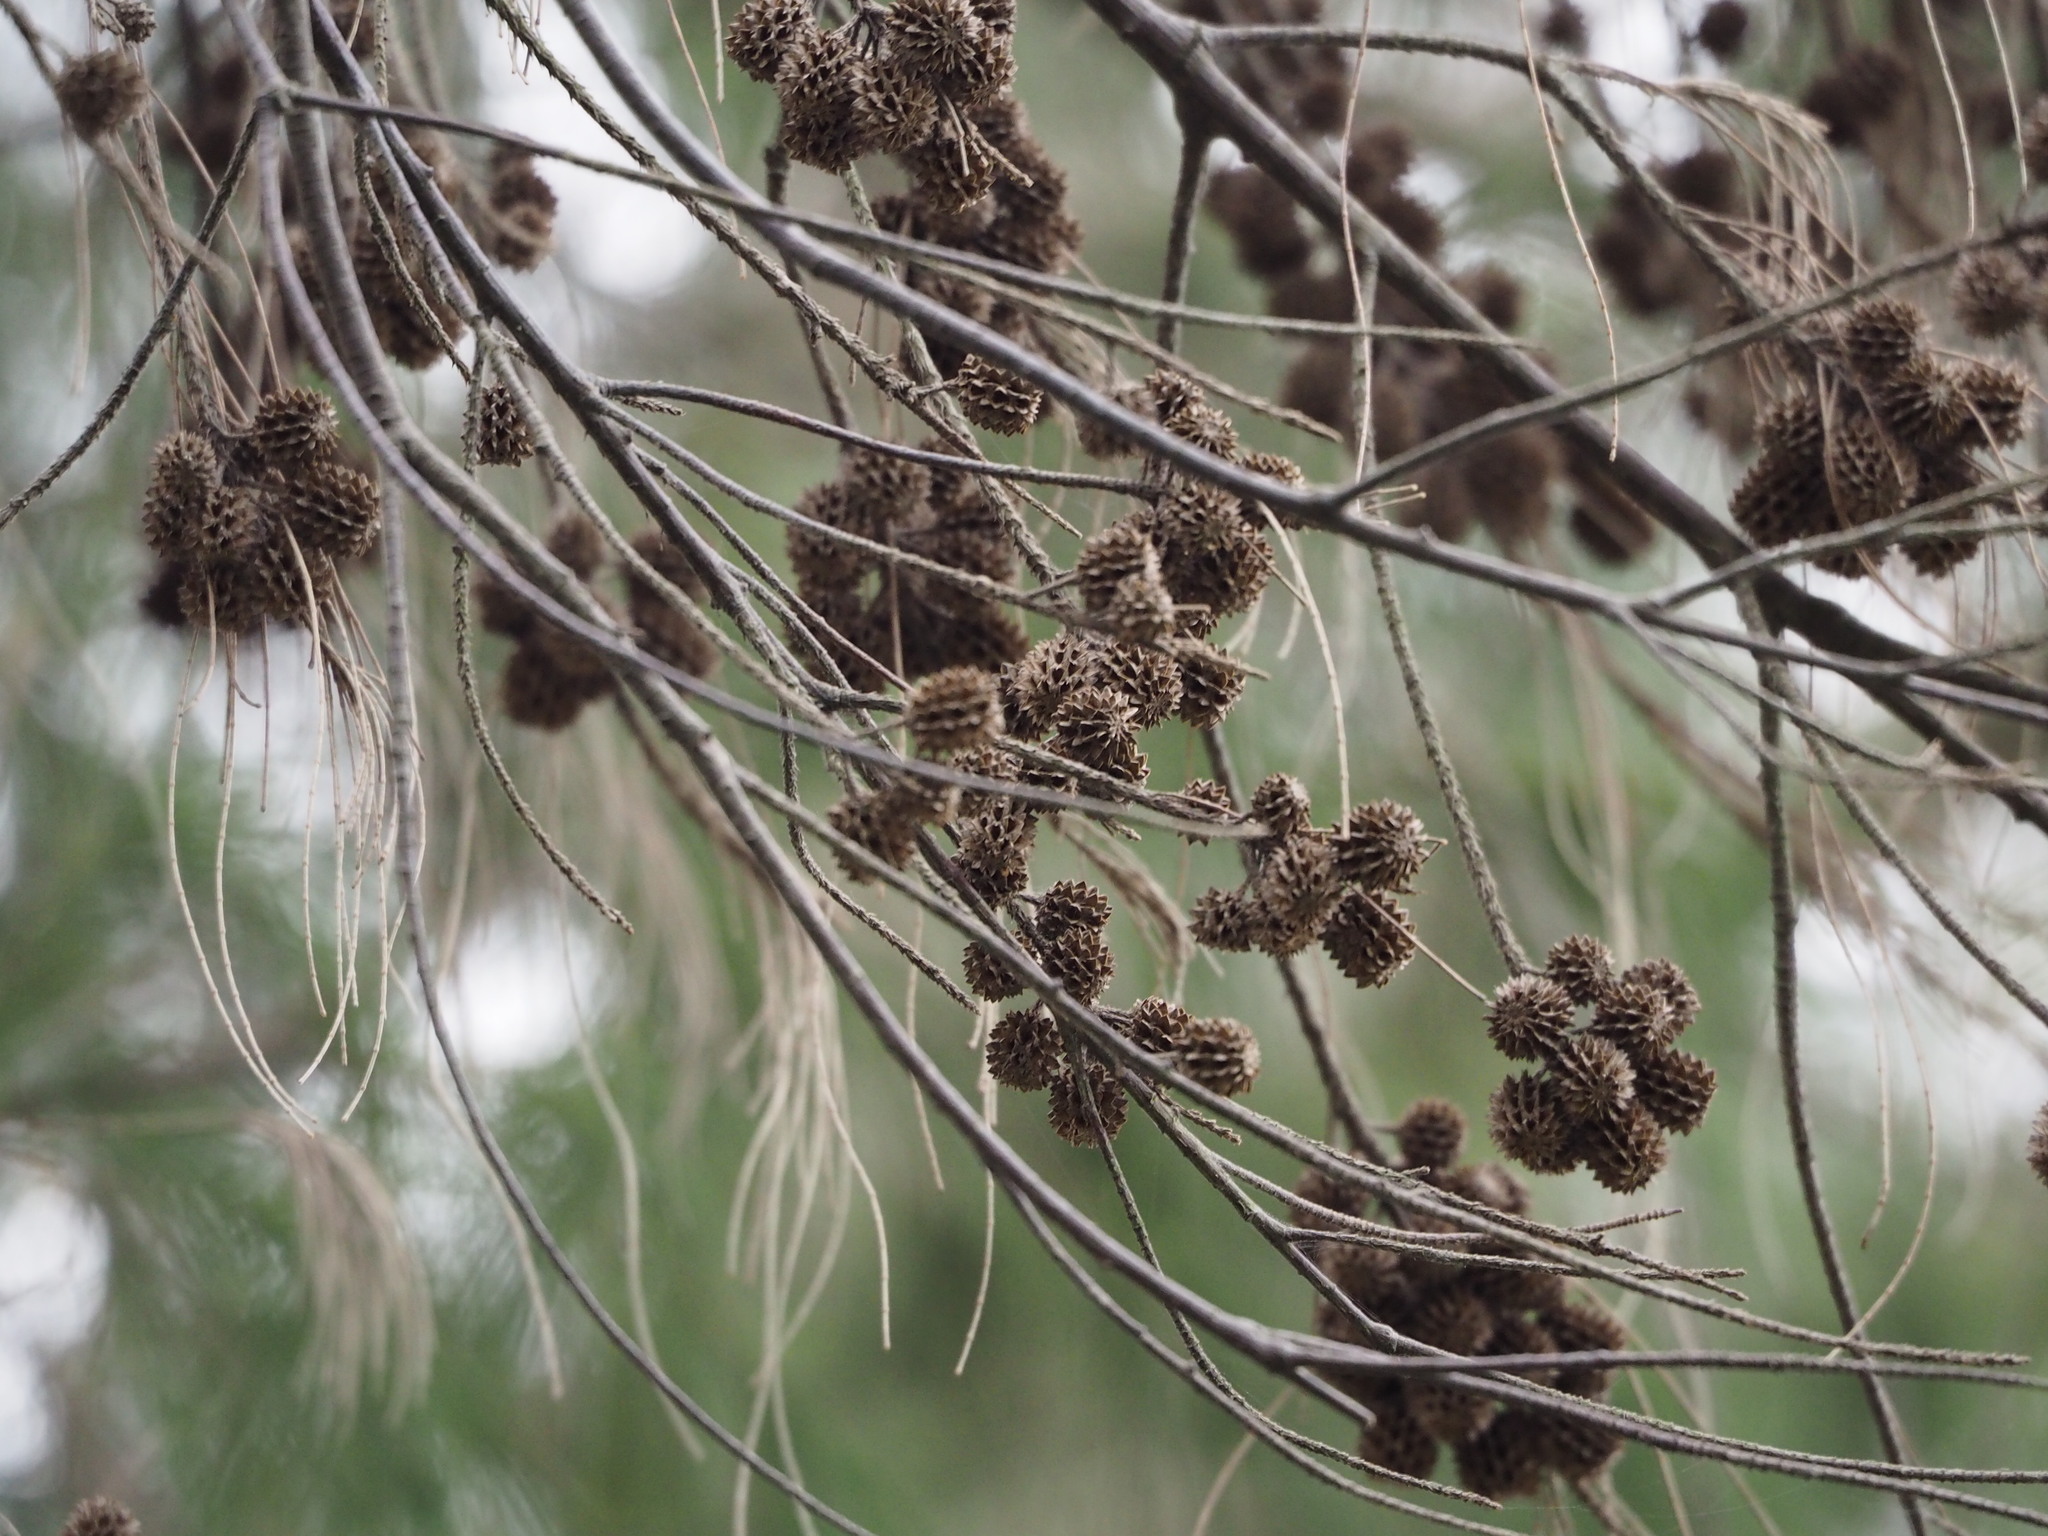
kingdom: Plantae
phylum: Tracheophyta
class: Magnoliopsida
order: Fagales
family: Casuarinaceae
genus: Casuarina
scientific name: Casuarina equisetifolia
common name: Beach sheoak
